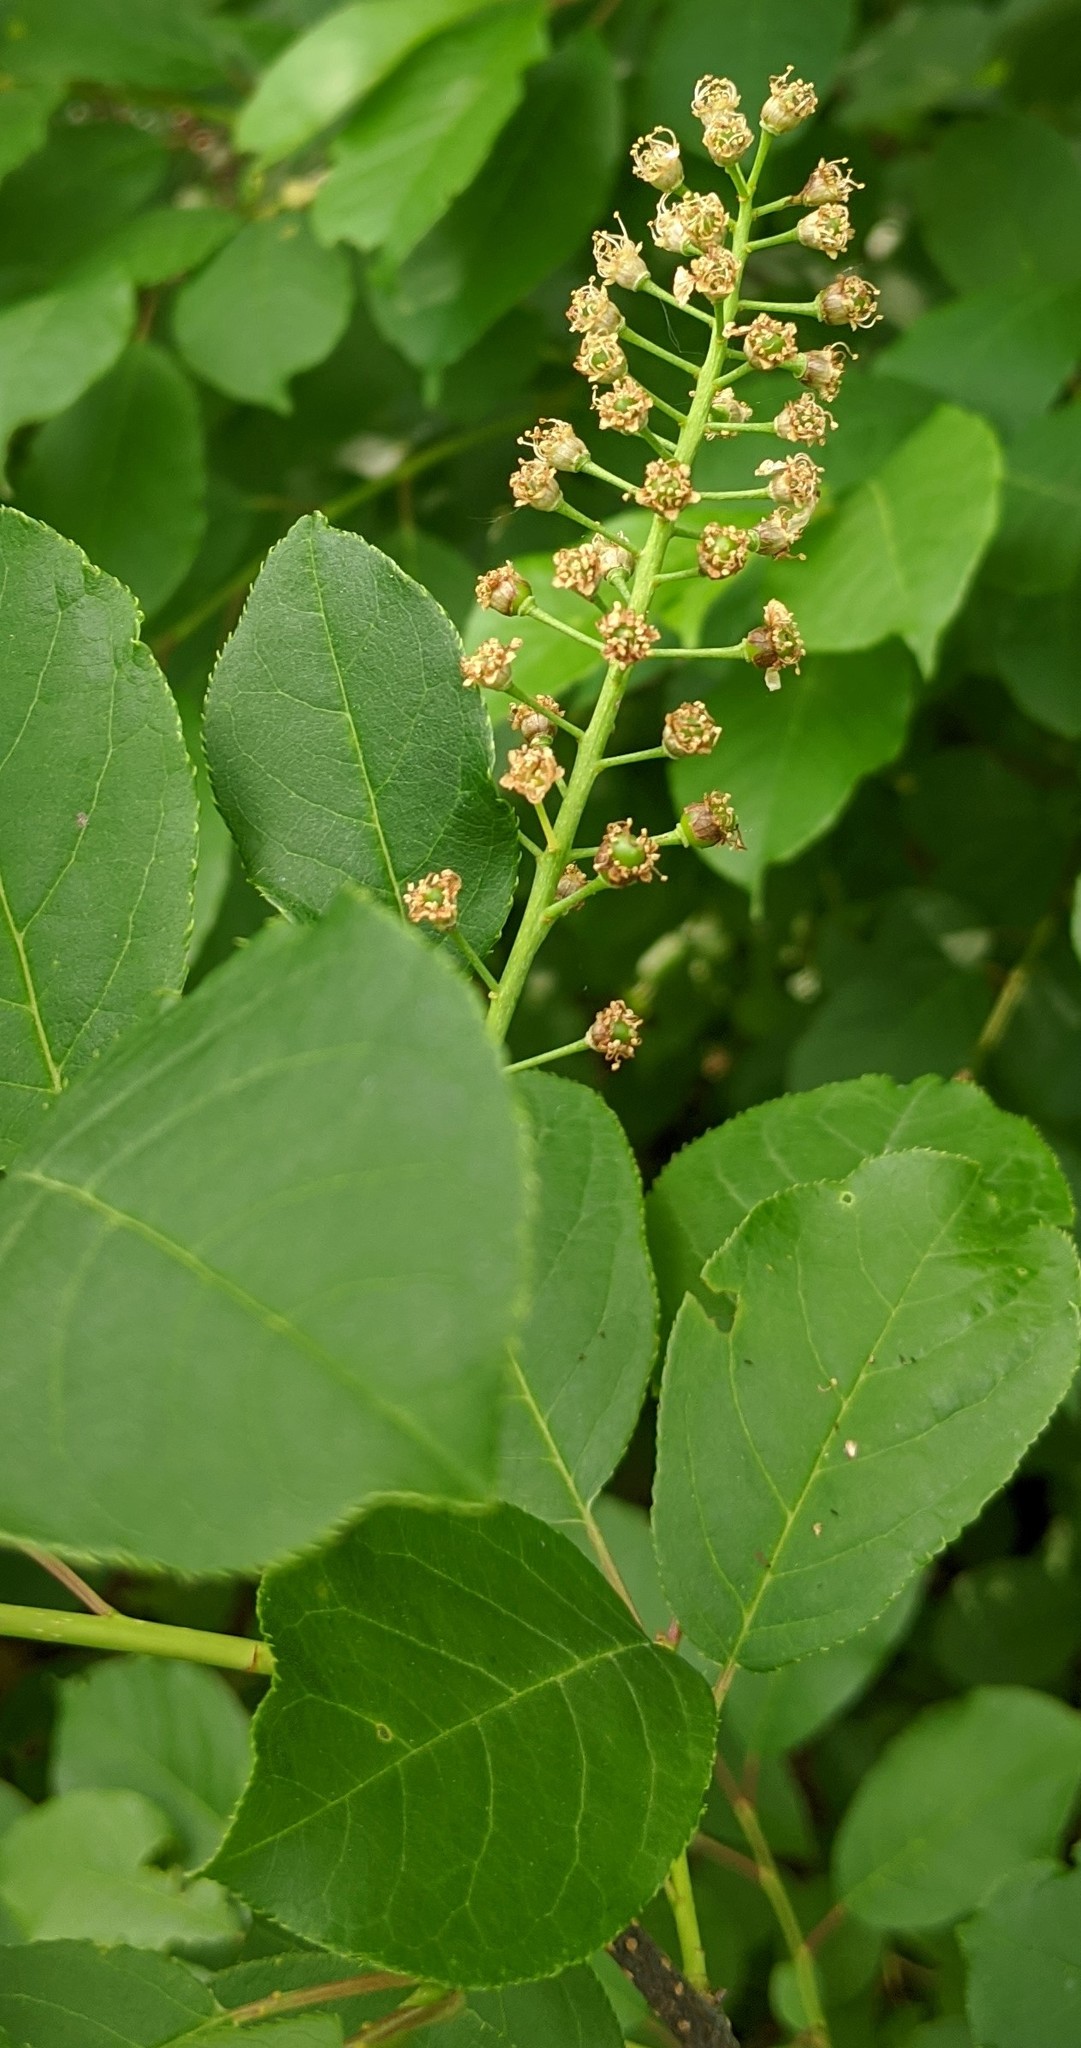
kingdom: Plantae
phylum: Tracheophyta
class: Magnoliopsida
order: Rosales
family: Rosaceae
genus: Prunus
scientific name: Prunus virginiana
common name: Chokecherry
